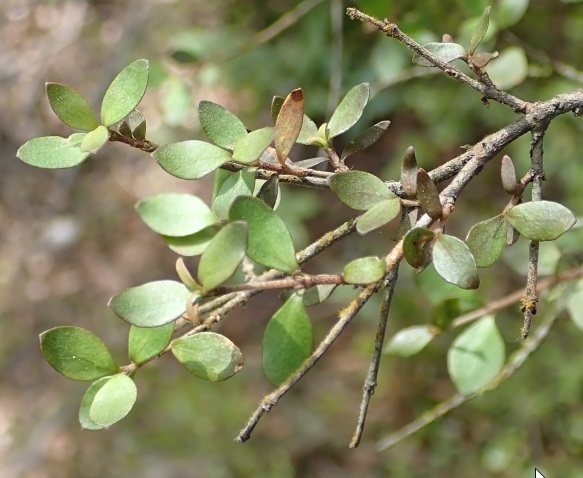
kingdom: Plantae
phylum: Tracheophyta
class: Magnoliopsida
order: Gentianales
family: Rubiaceae
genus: Coprosma
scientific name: Coprosma rhamnoides
